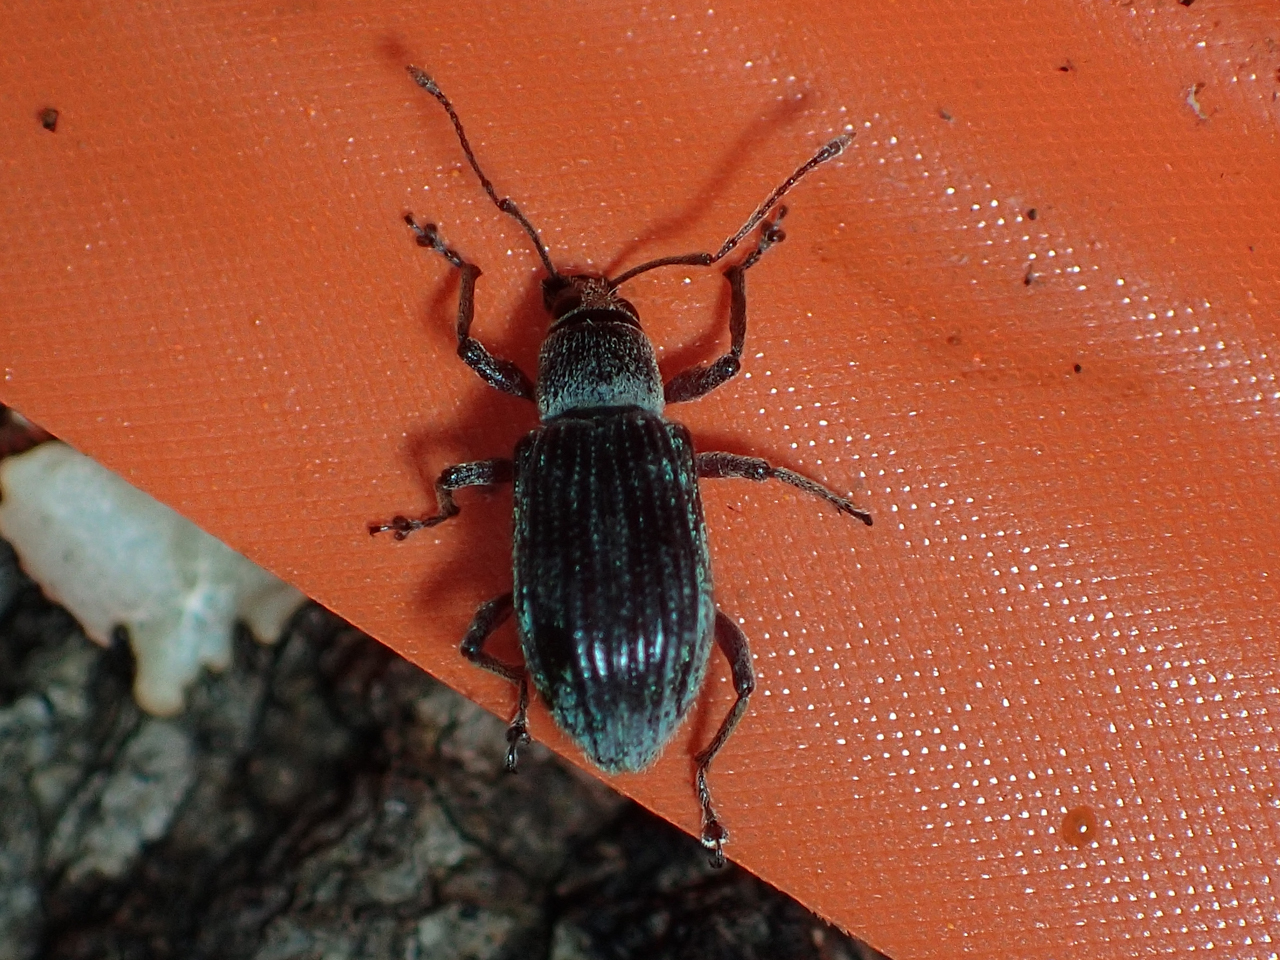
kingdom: Animalia
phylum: Arthropoda
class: Insecta
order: Coleoptera
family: Curculionidae
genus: Cyrtepistomus
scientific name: Cyrtepistomus castaneus
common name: Weevil
